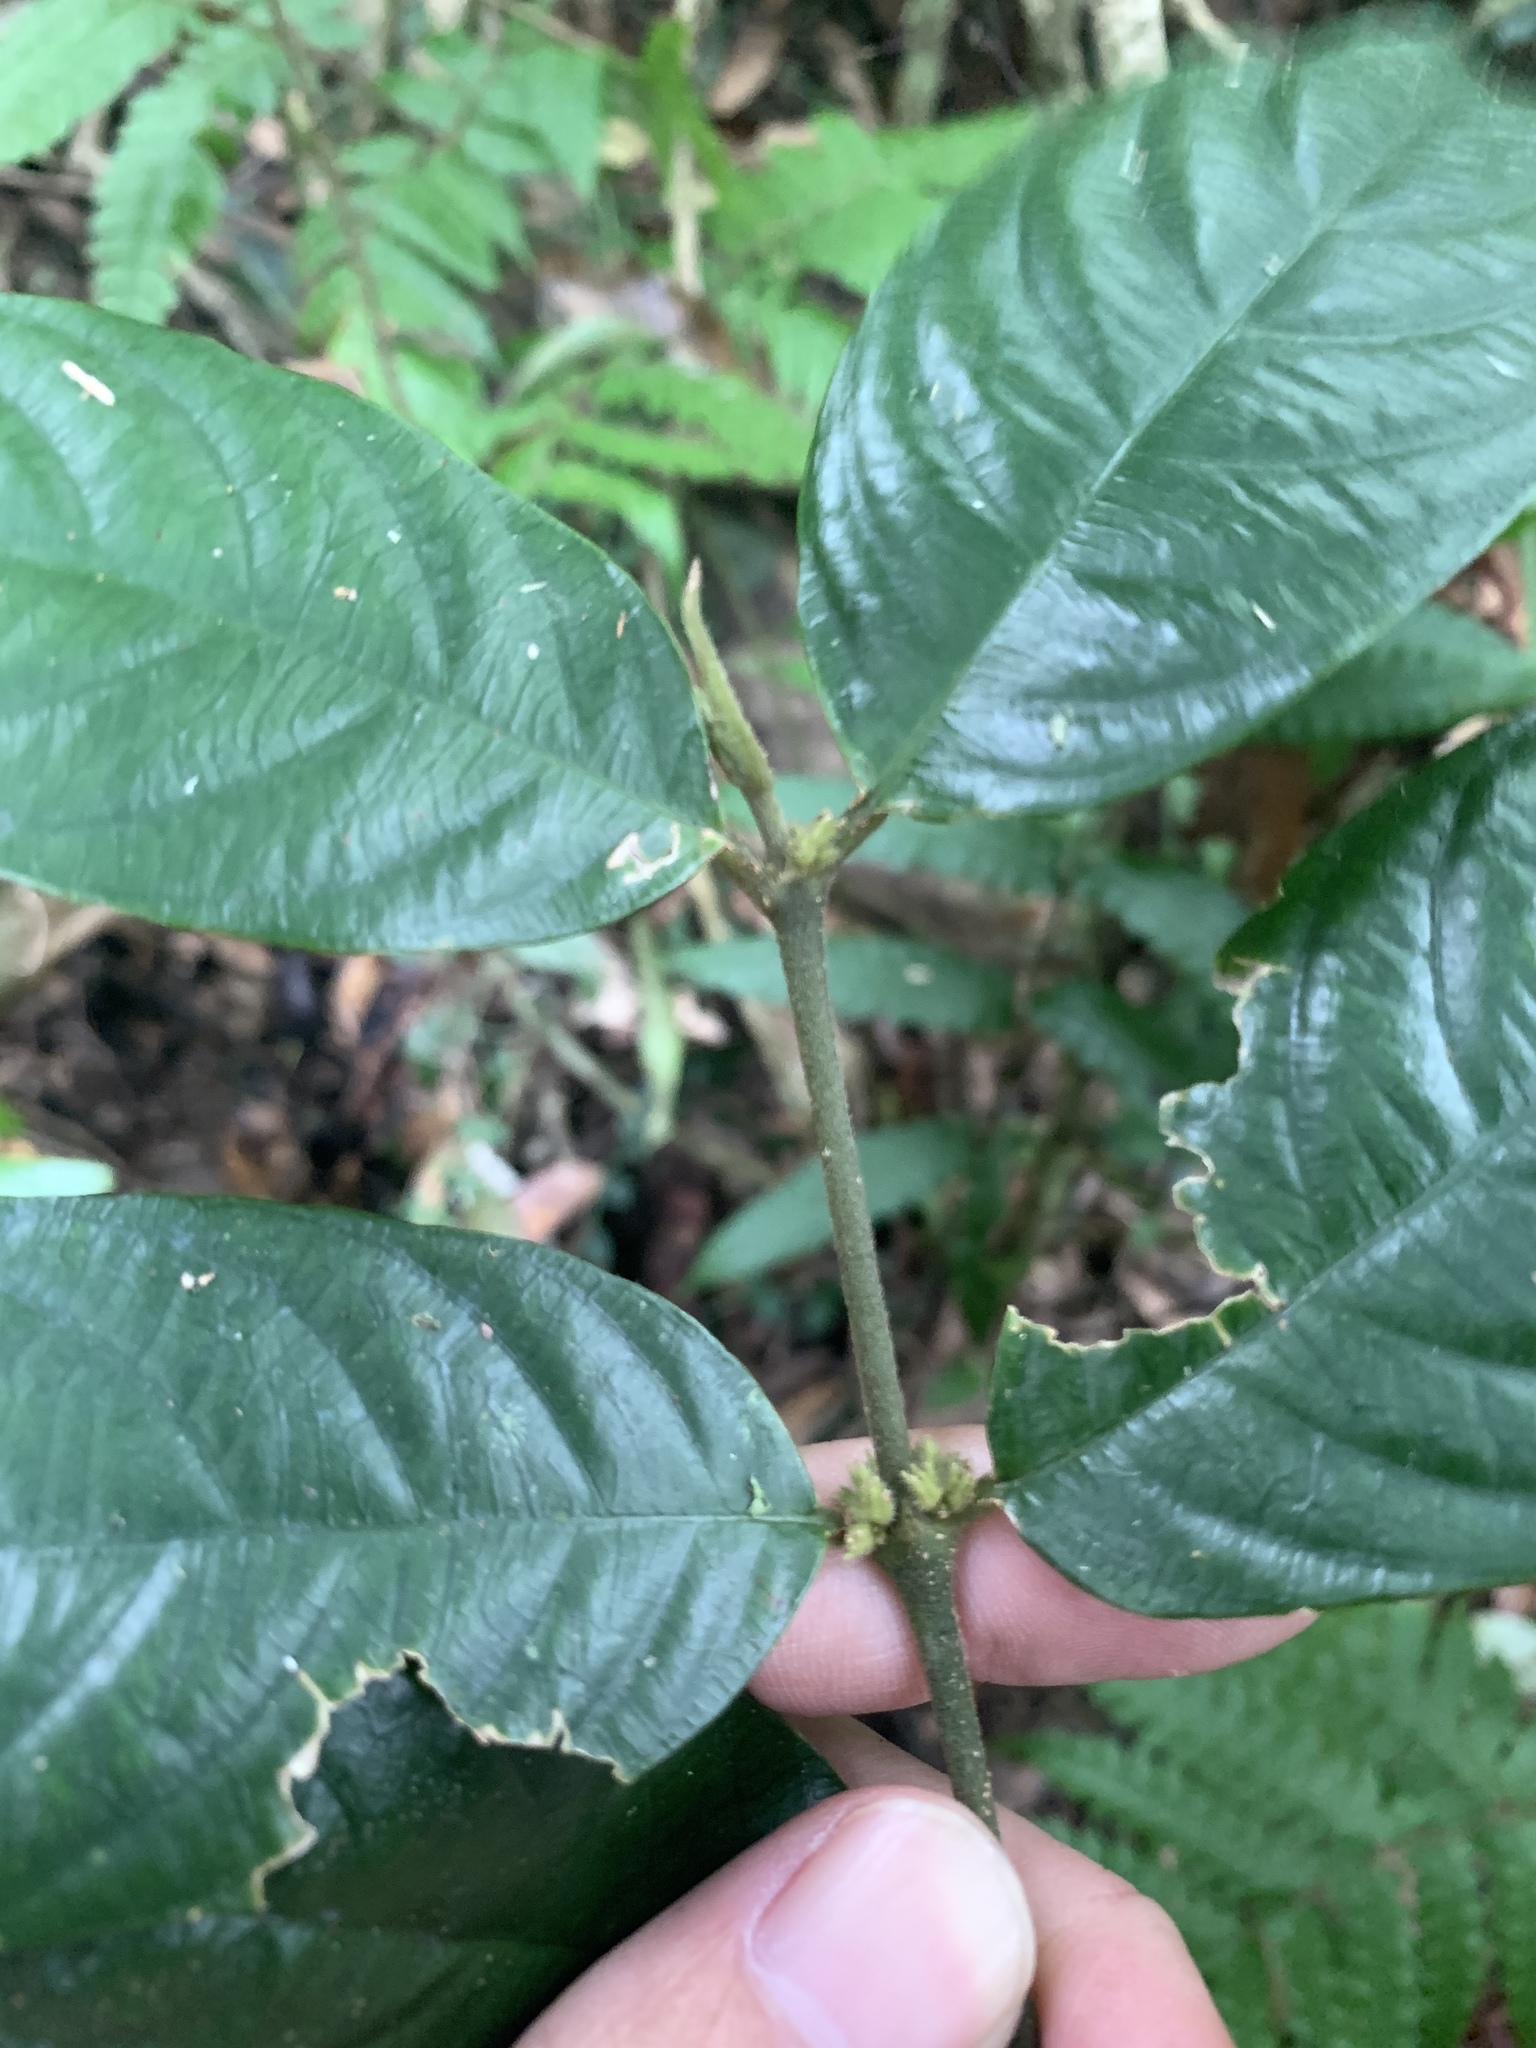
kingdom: Plantae
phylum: Tracheophyta
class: Magnoliopsida
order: Gentianales
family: Rubiaceae
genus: Lasianthus
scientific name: Lasianthus formosensis
